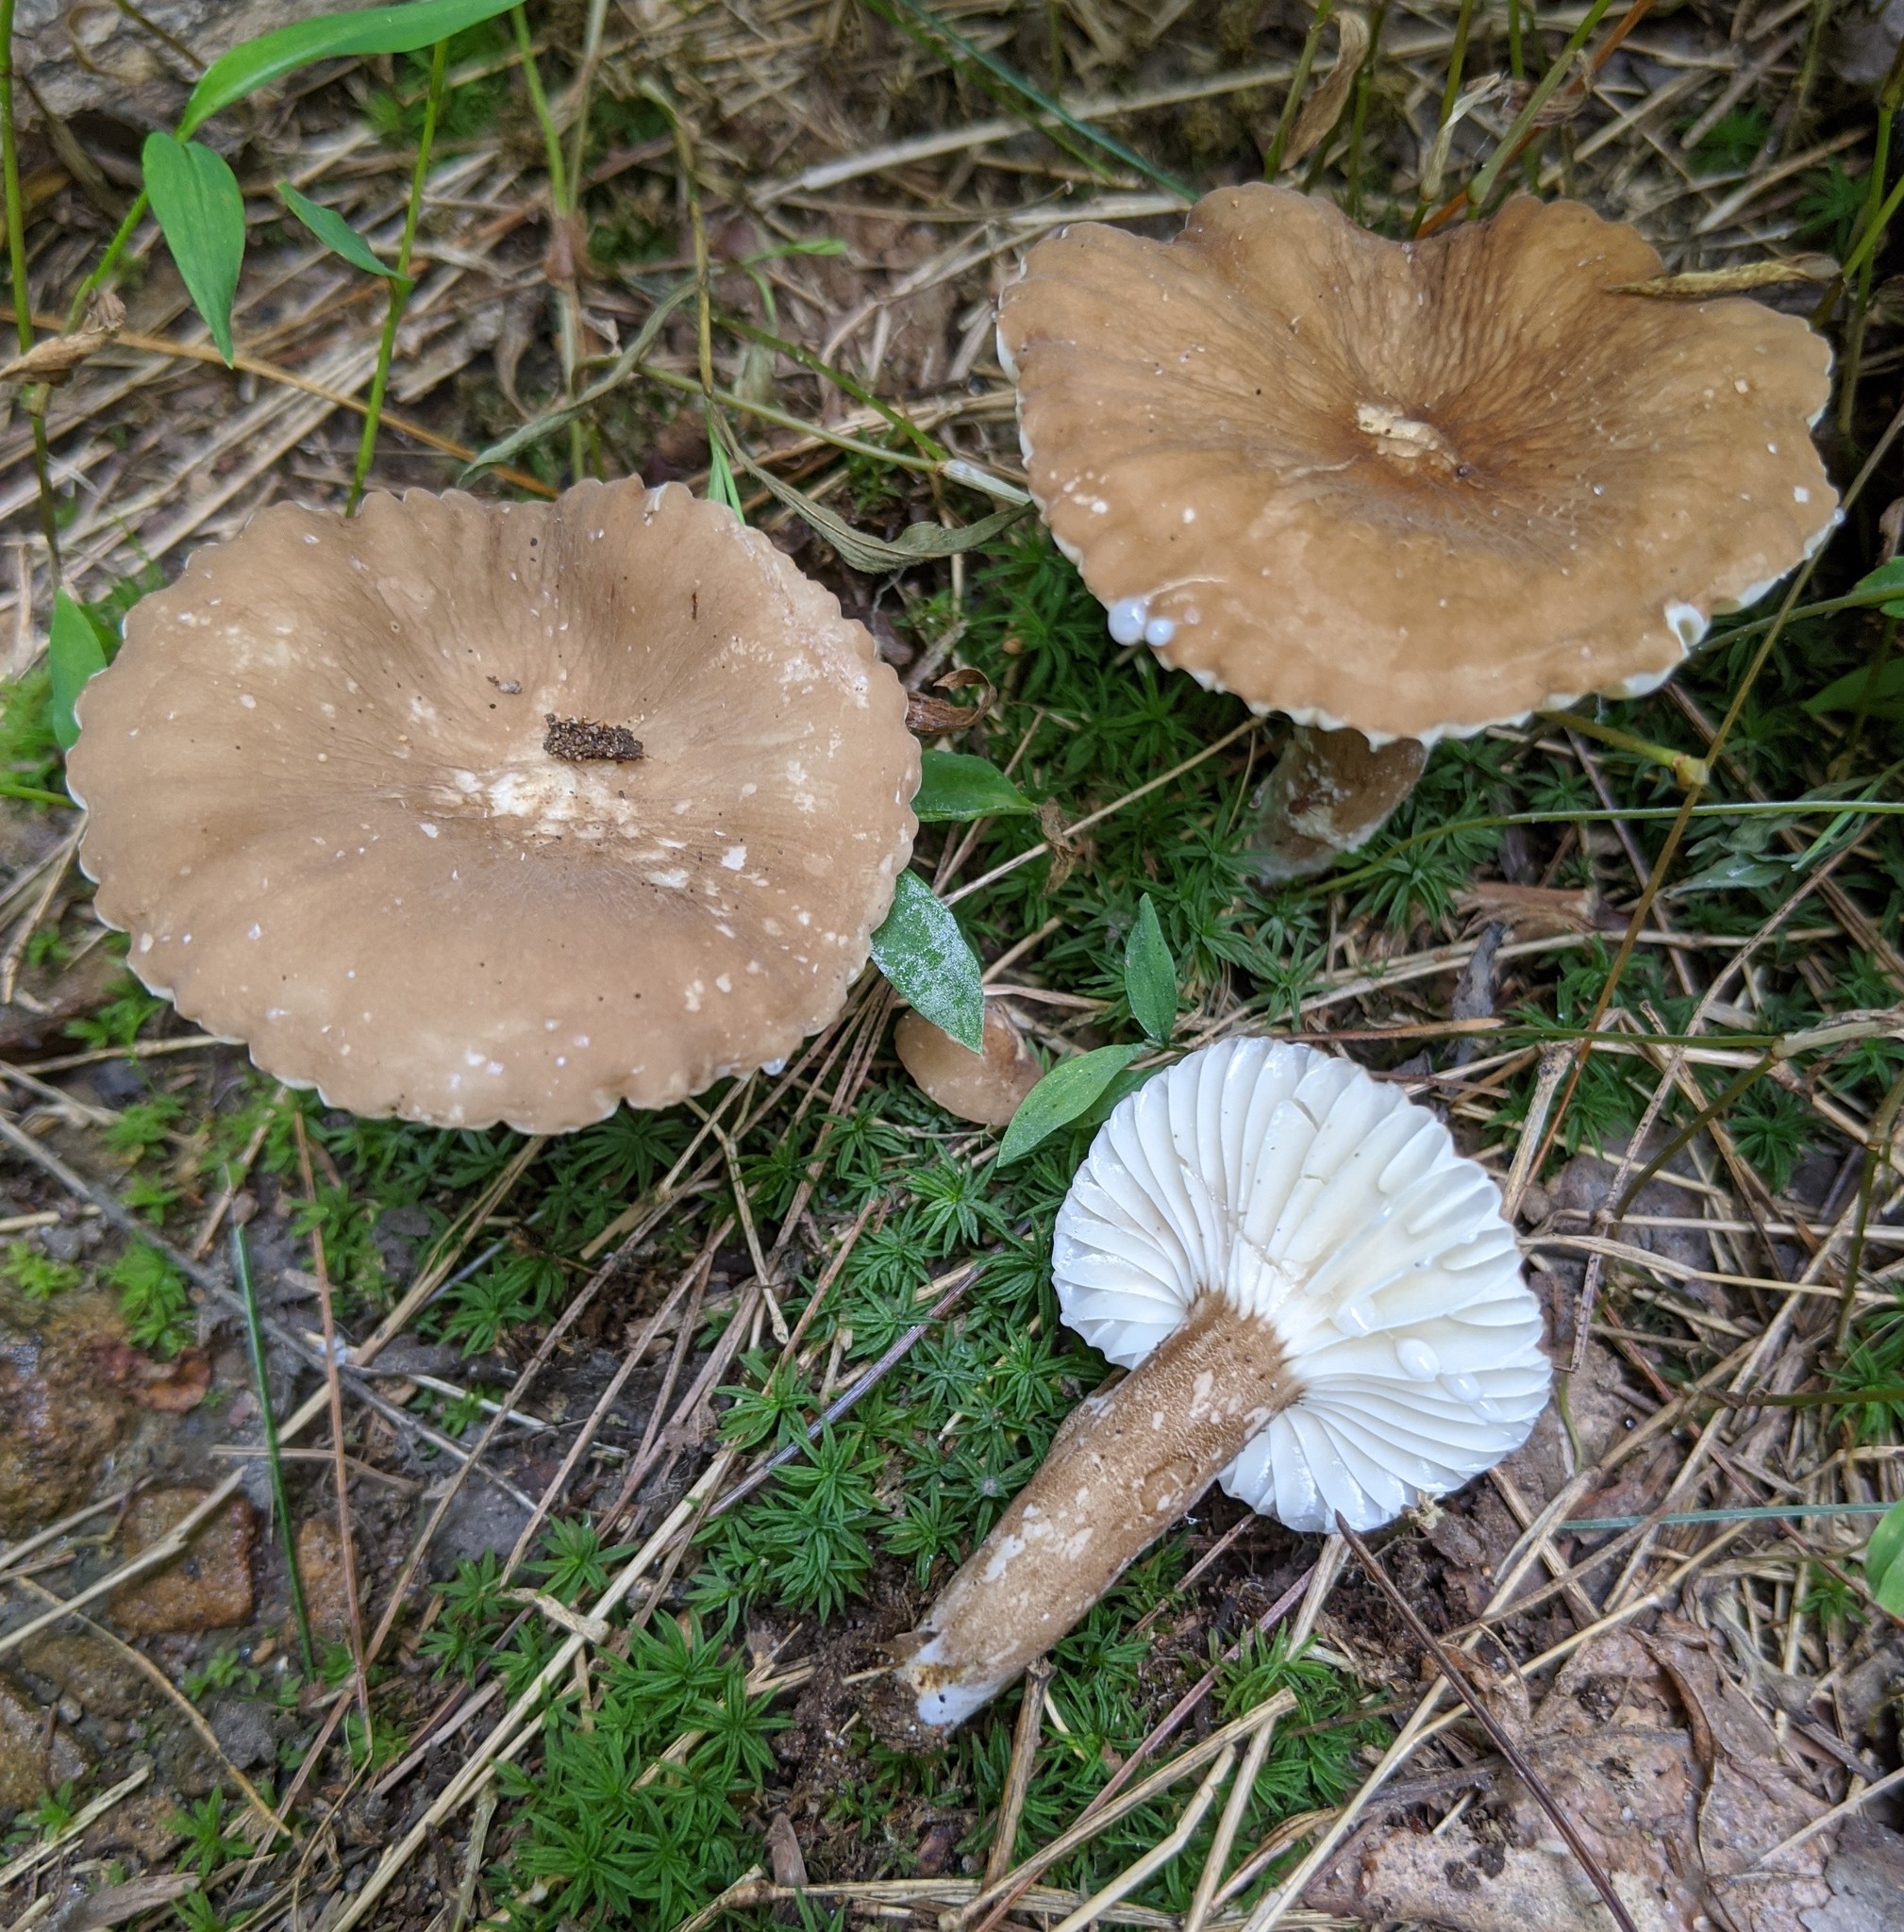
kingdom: Fungi
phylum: Basidiomycota
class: Agaricomycetes
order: Russulales
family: Russulaceae
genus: Lactarius
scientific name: Lactarius gerardii
